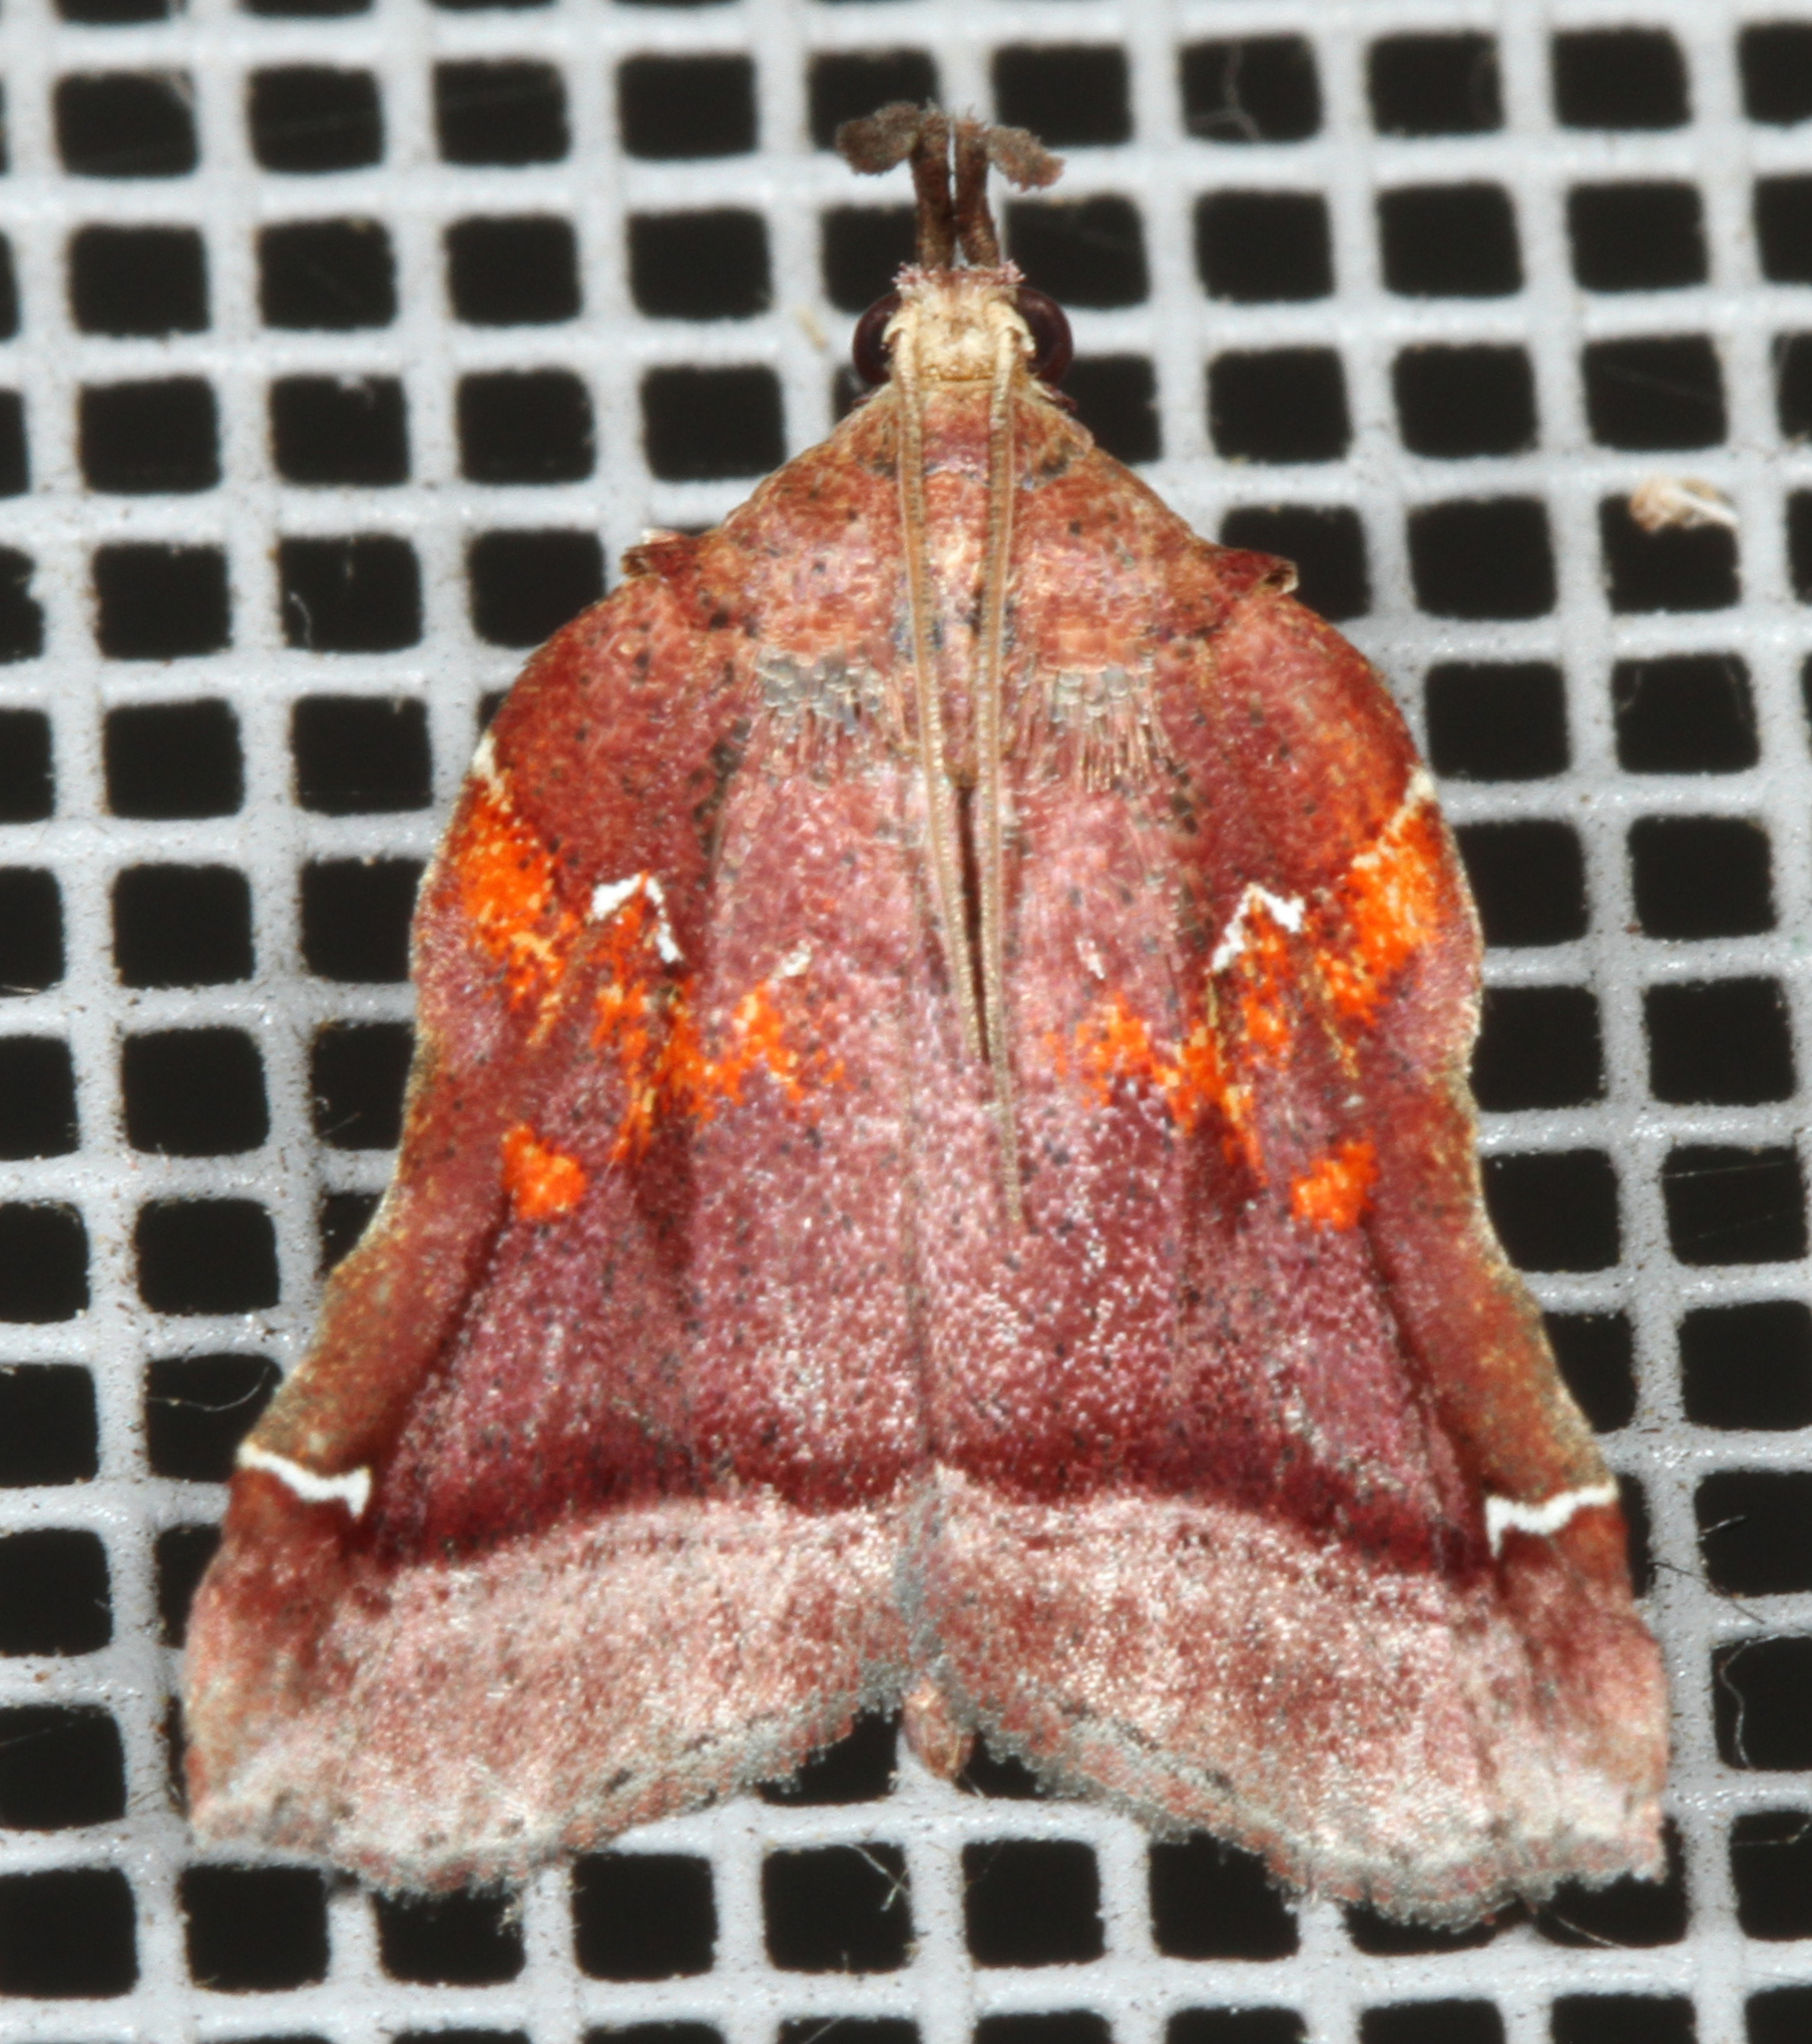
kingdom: Animalia
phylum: Arthropoda
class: Insecta
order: Lepidoptera
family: Pyralidae
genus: Clydonopteron
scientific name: Clydonopteron sacculana
